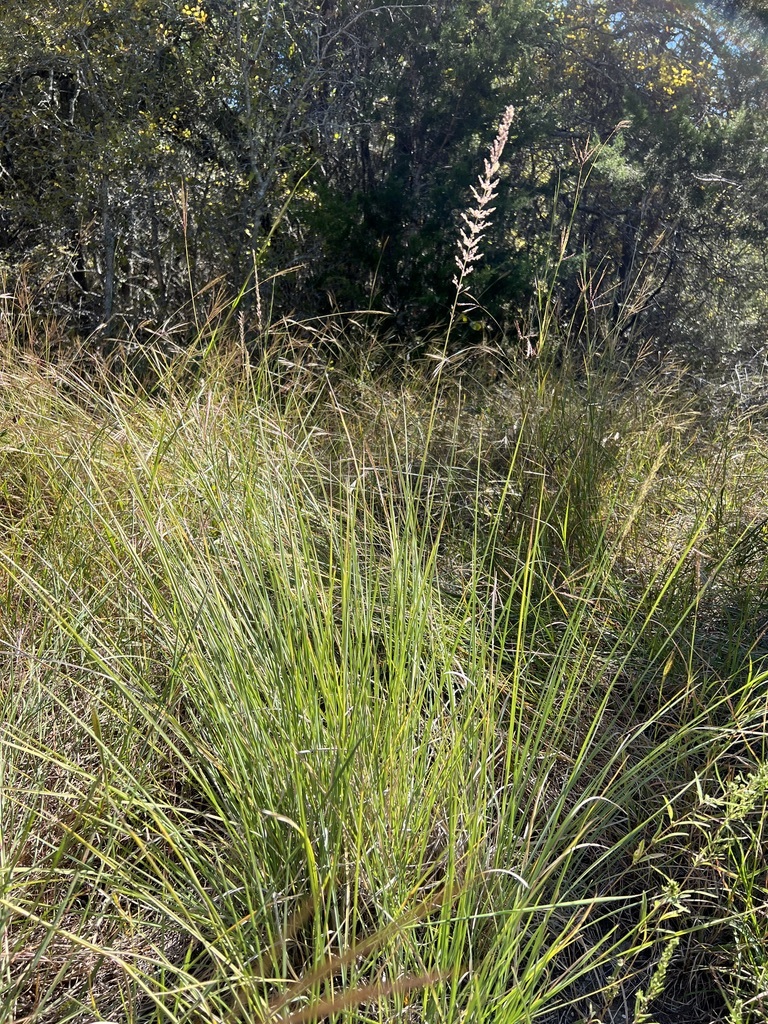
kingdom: Plantae
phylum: Tracheophyta
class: Liliopsida
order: Poales
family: Poaceae
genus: Muhlenbergia
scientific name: Muhlenbergia lindheimeri
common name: Lindheimer's muhly
